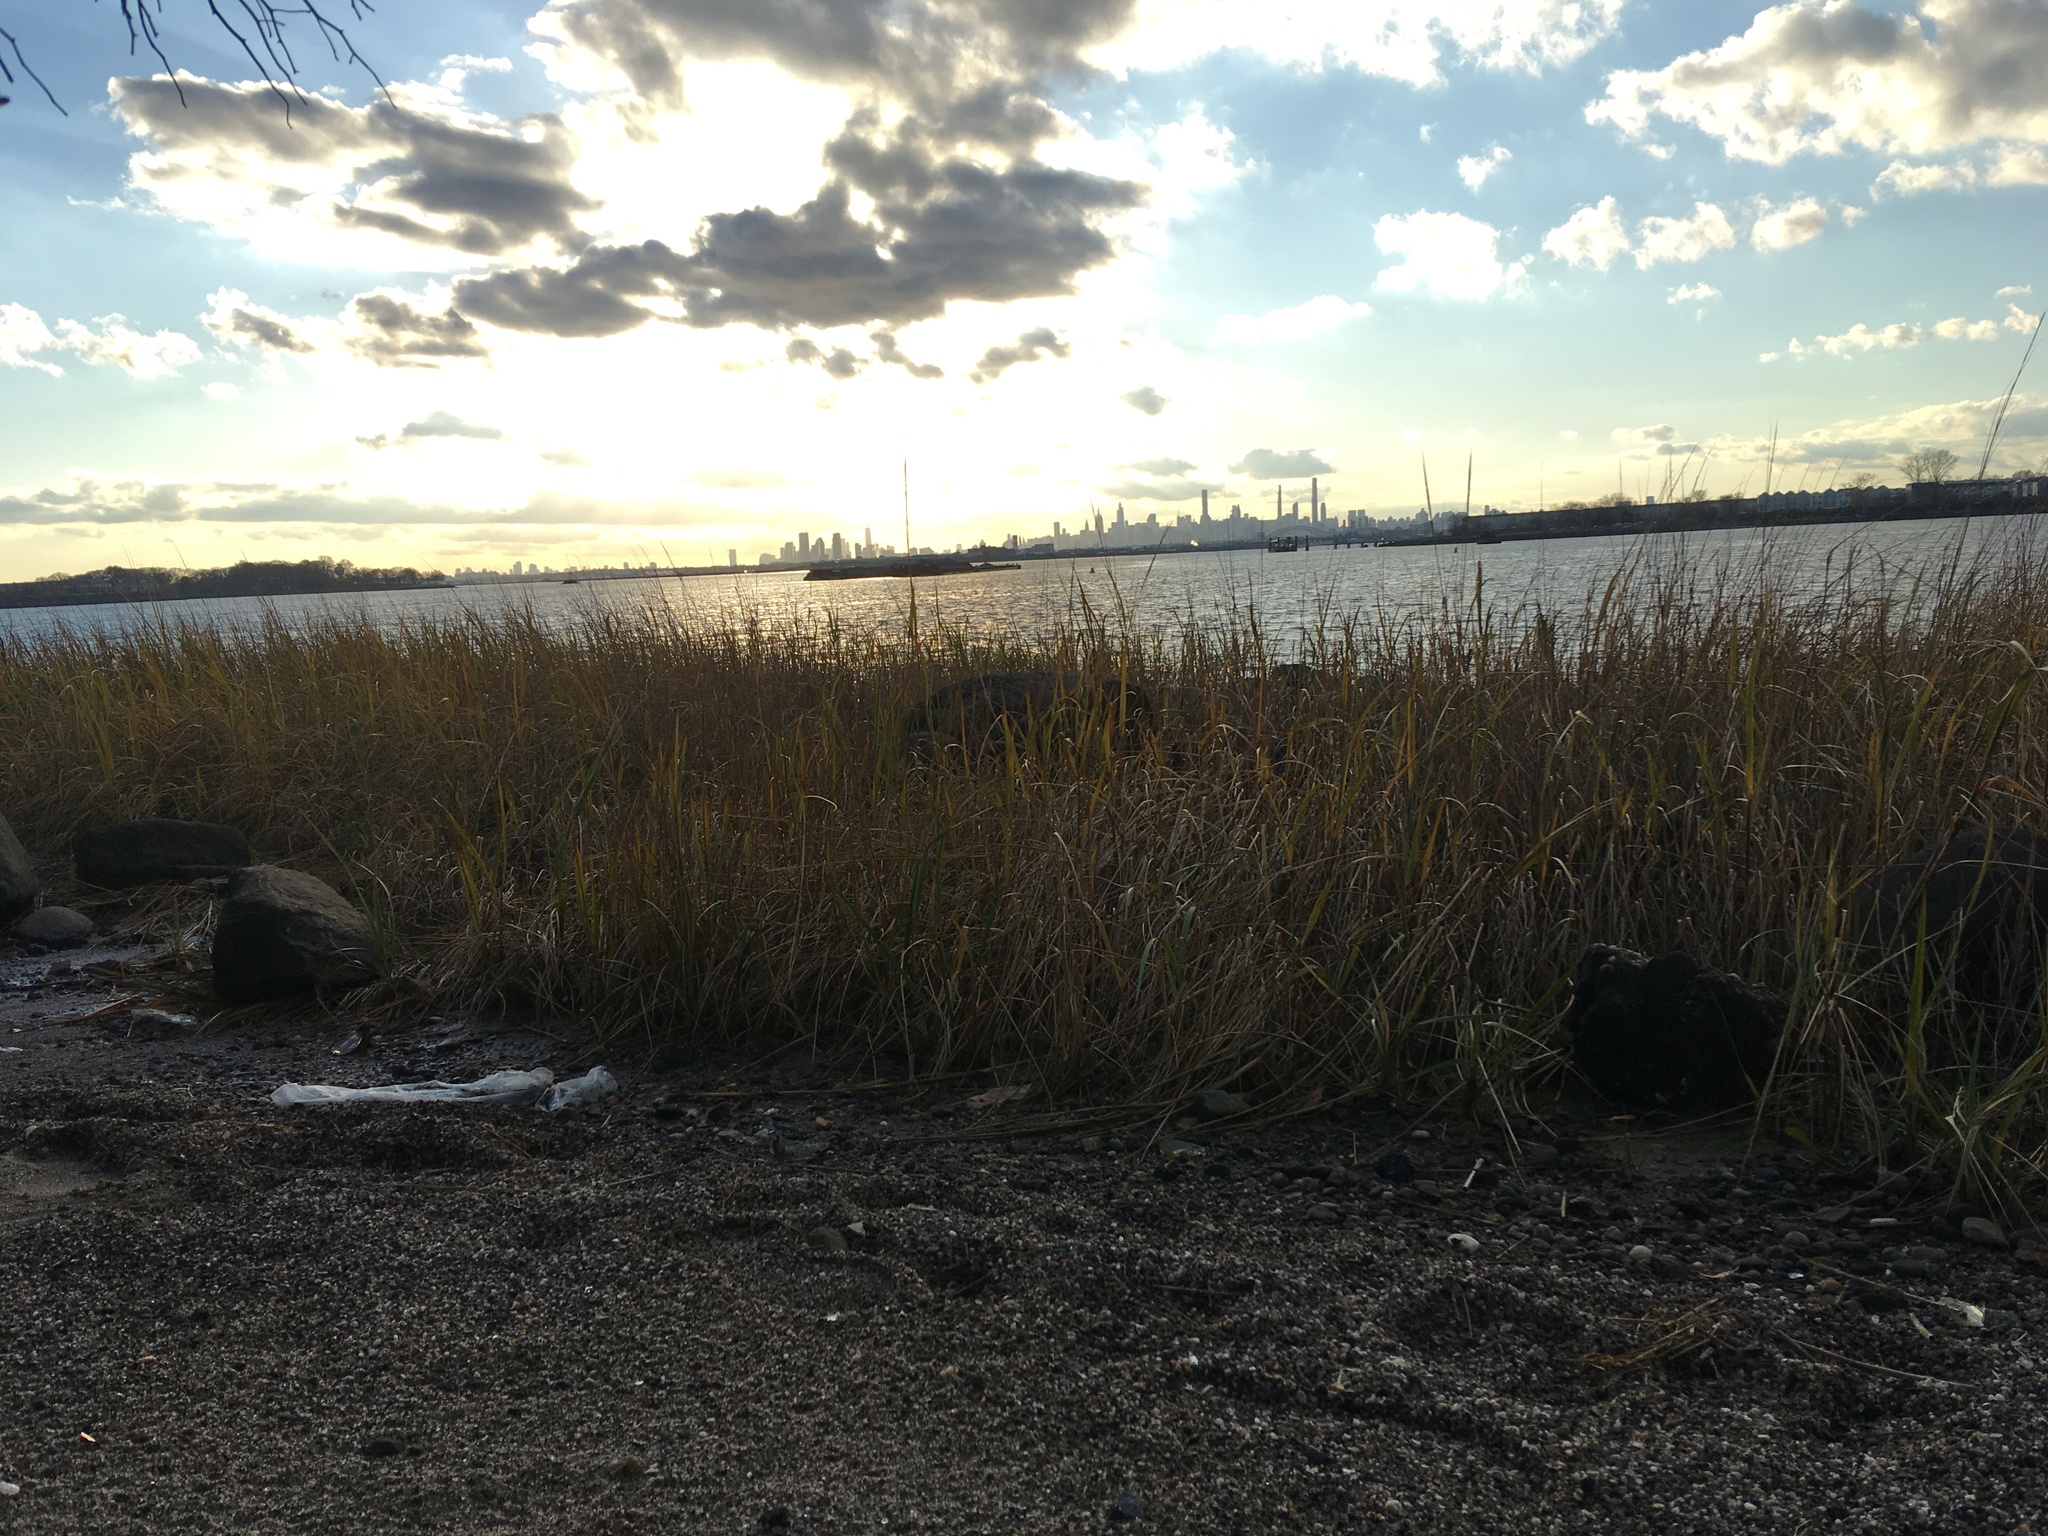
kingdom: Plantae
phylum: Tracheophyta
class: Liliopsida
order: Poales
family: Poaceae
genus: Sporobolus
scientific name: Sporobolus alterniflorus
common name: Atlantic cordgrass
